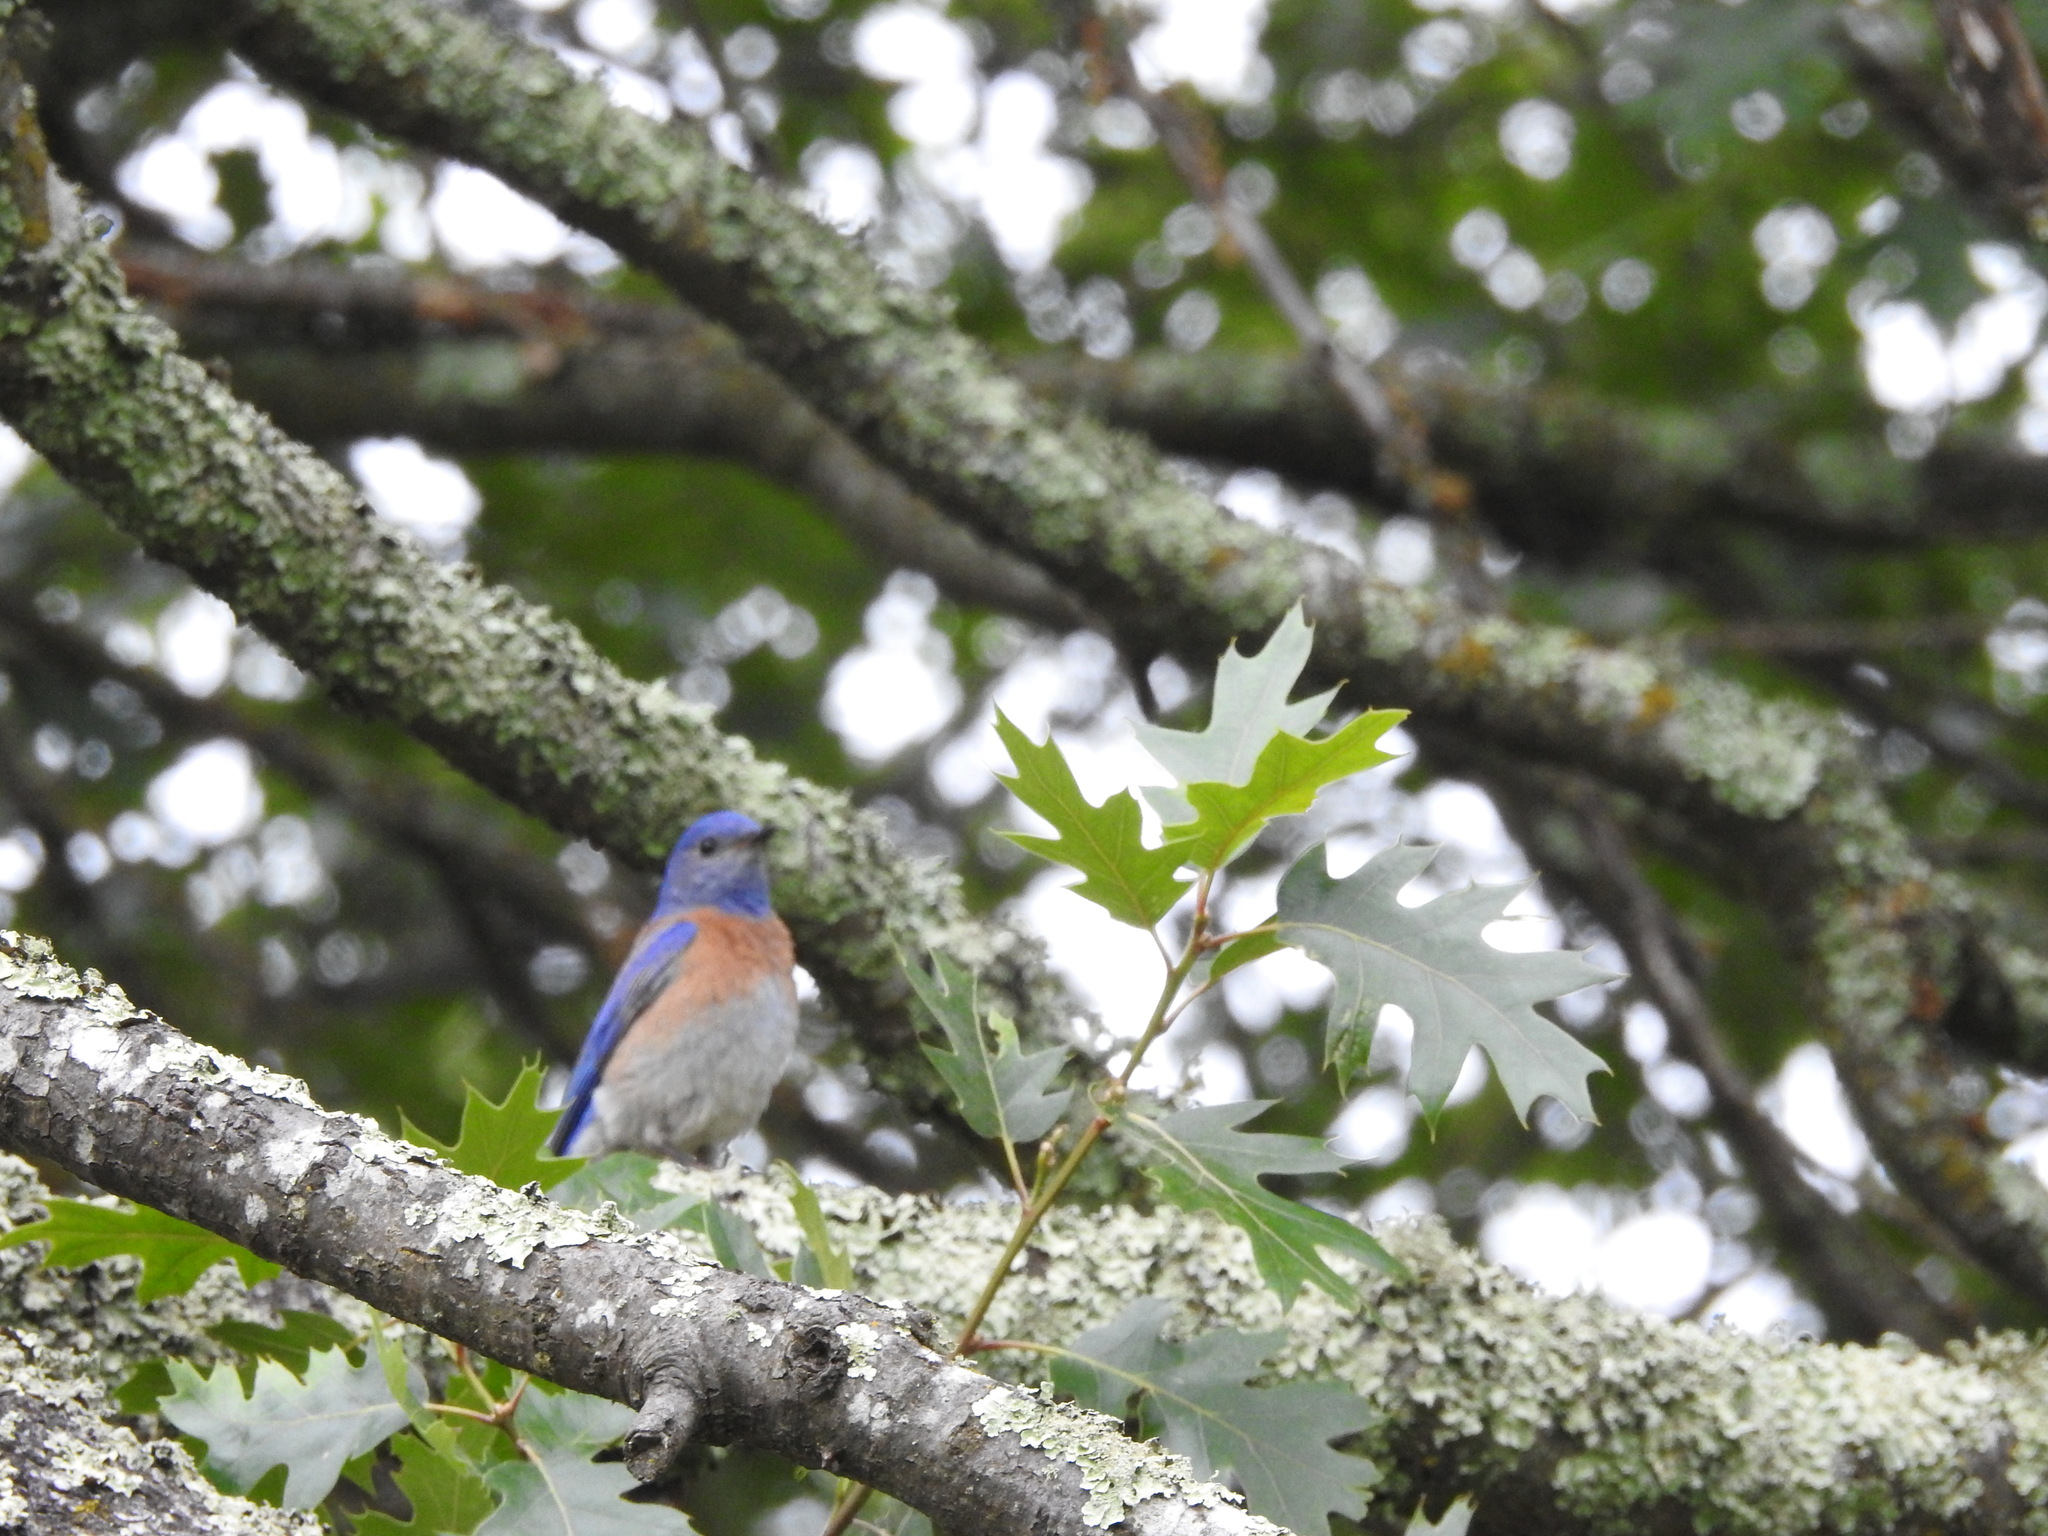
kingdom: Animalia
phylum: Chordata
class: Aves
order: Passeriformes
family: Turdidae
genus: Sialia
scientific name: Sialia mexicana
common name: Western bluebird
